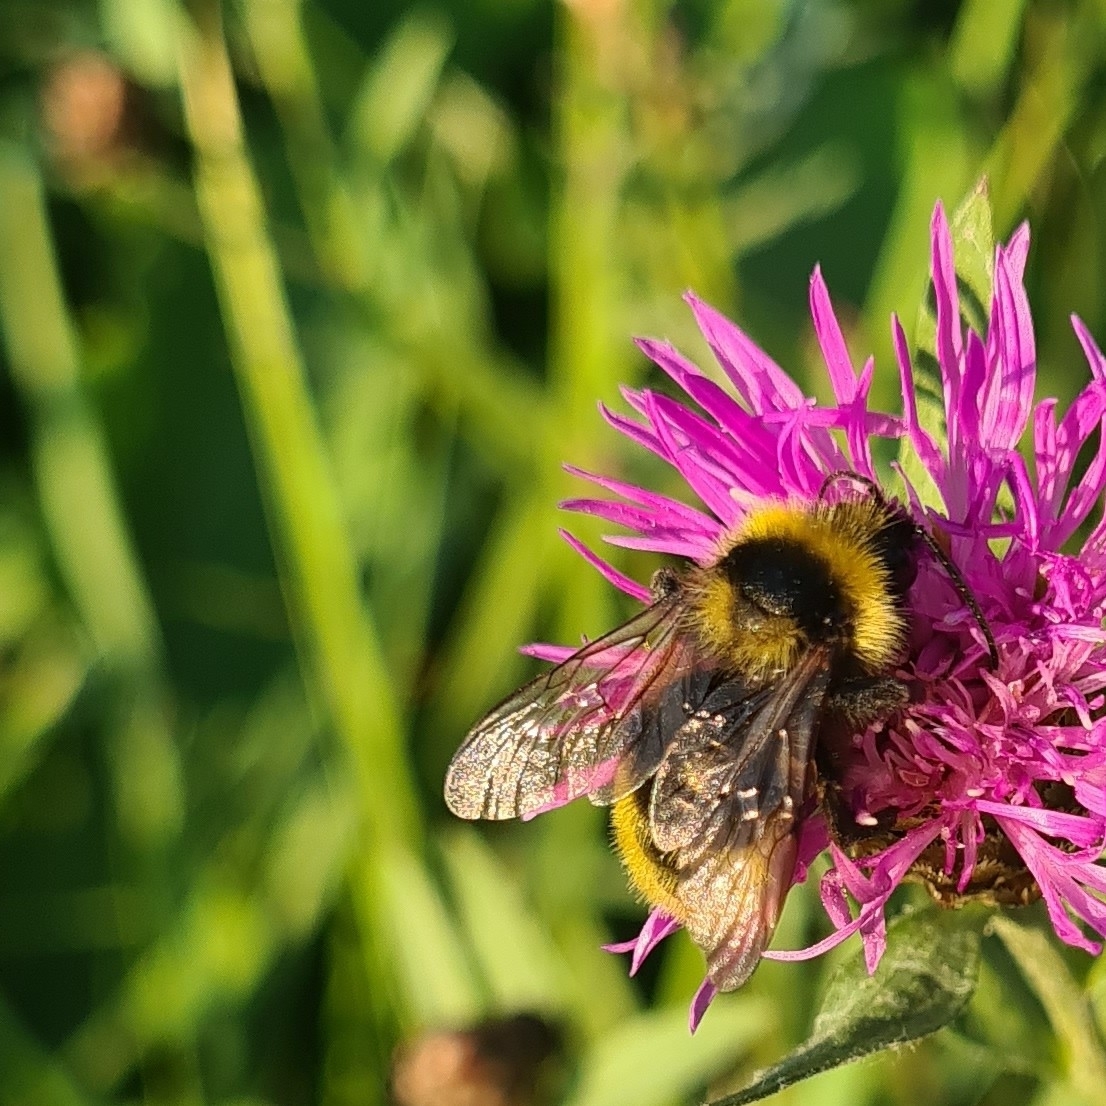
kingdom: Animalia
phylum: Arthropoda
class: Insecta
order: Hymenoptera
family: Apidae
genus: Bombus
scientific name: Bombus campestris
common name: Field cuckoo-bee
